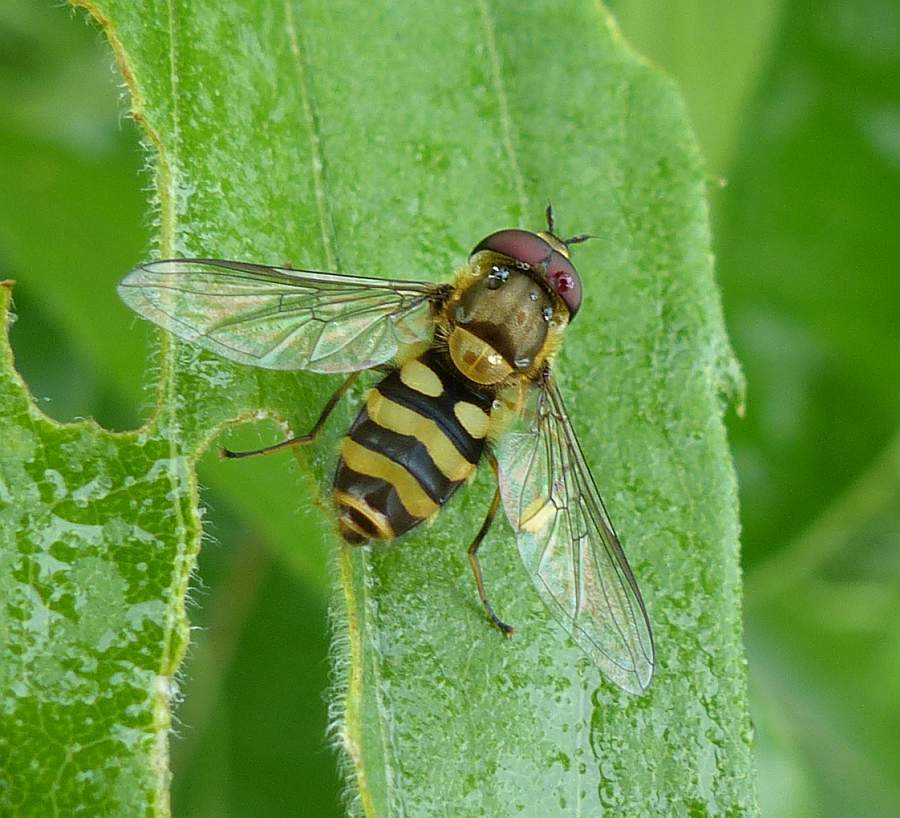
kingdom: Animalia
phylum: Arthropoda
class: Insecta
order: Diptera
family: Syrphidae
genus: Syrphus
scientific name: Syrphus
